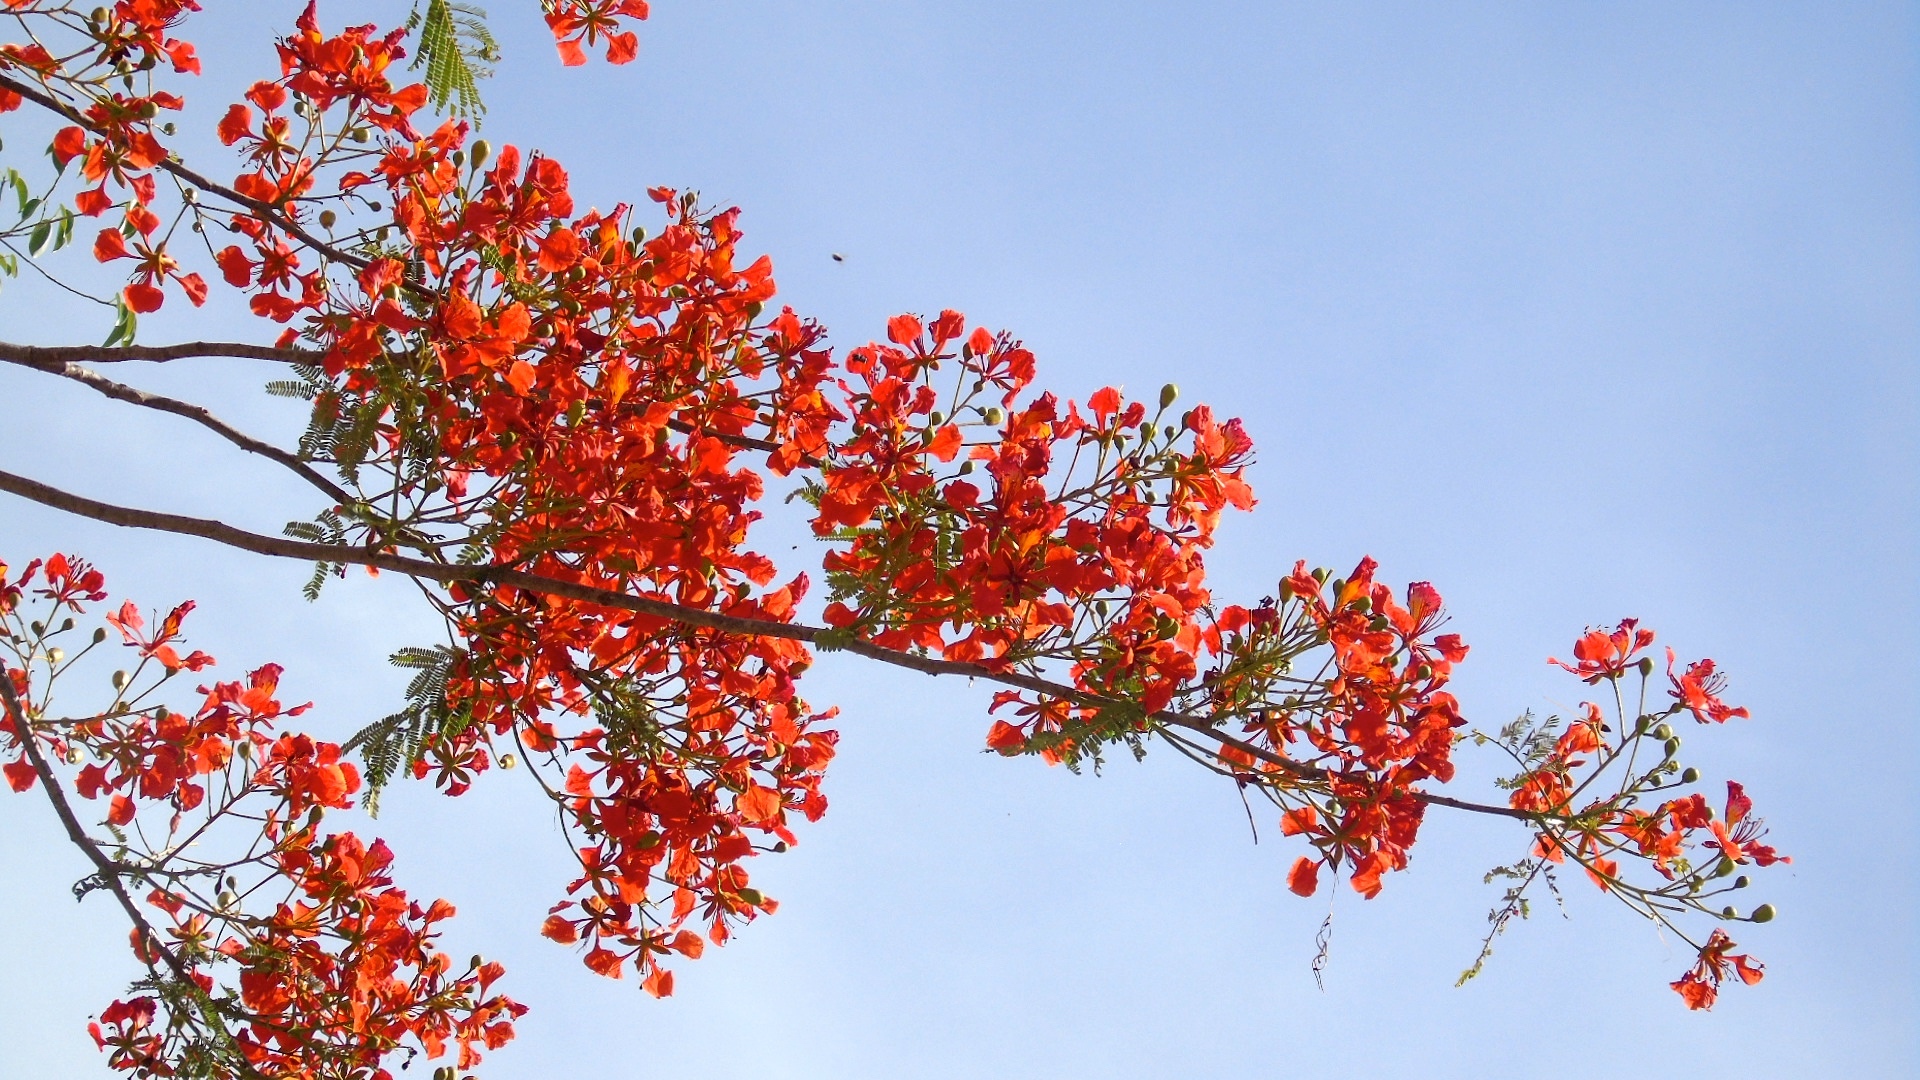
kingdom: Plantae
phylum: Tracheophyta
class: Magnoliopsida
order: Fabales
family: Fabaceae
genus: Delonix
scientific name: Delonix regia
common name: Royal poinciana
